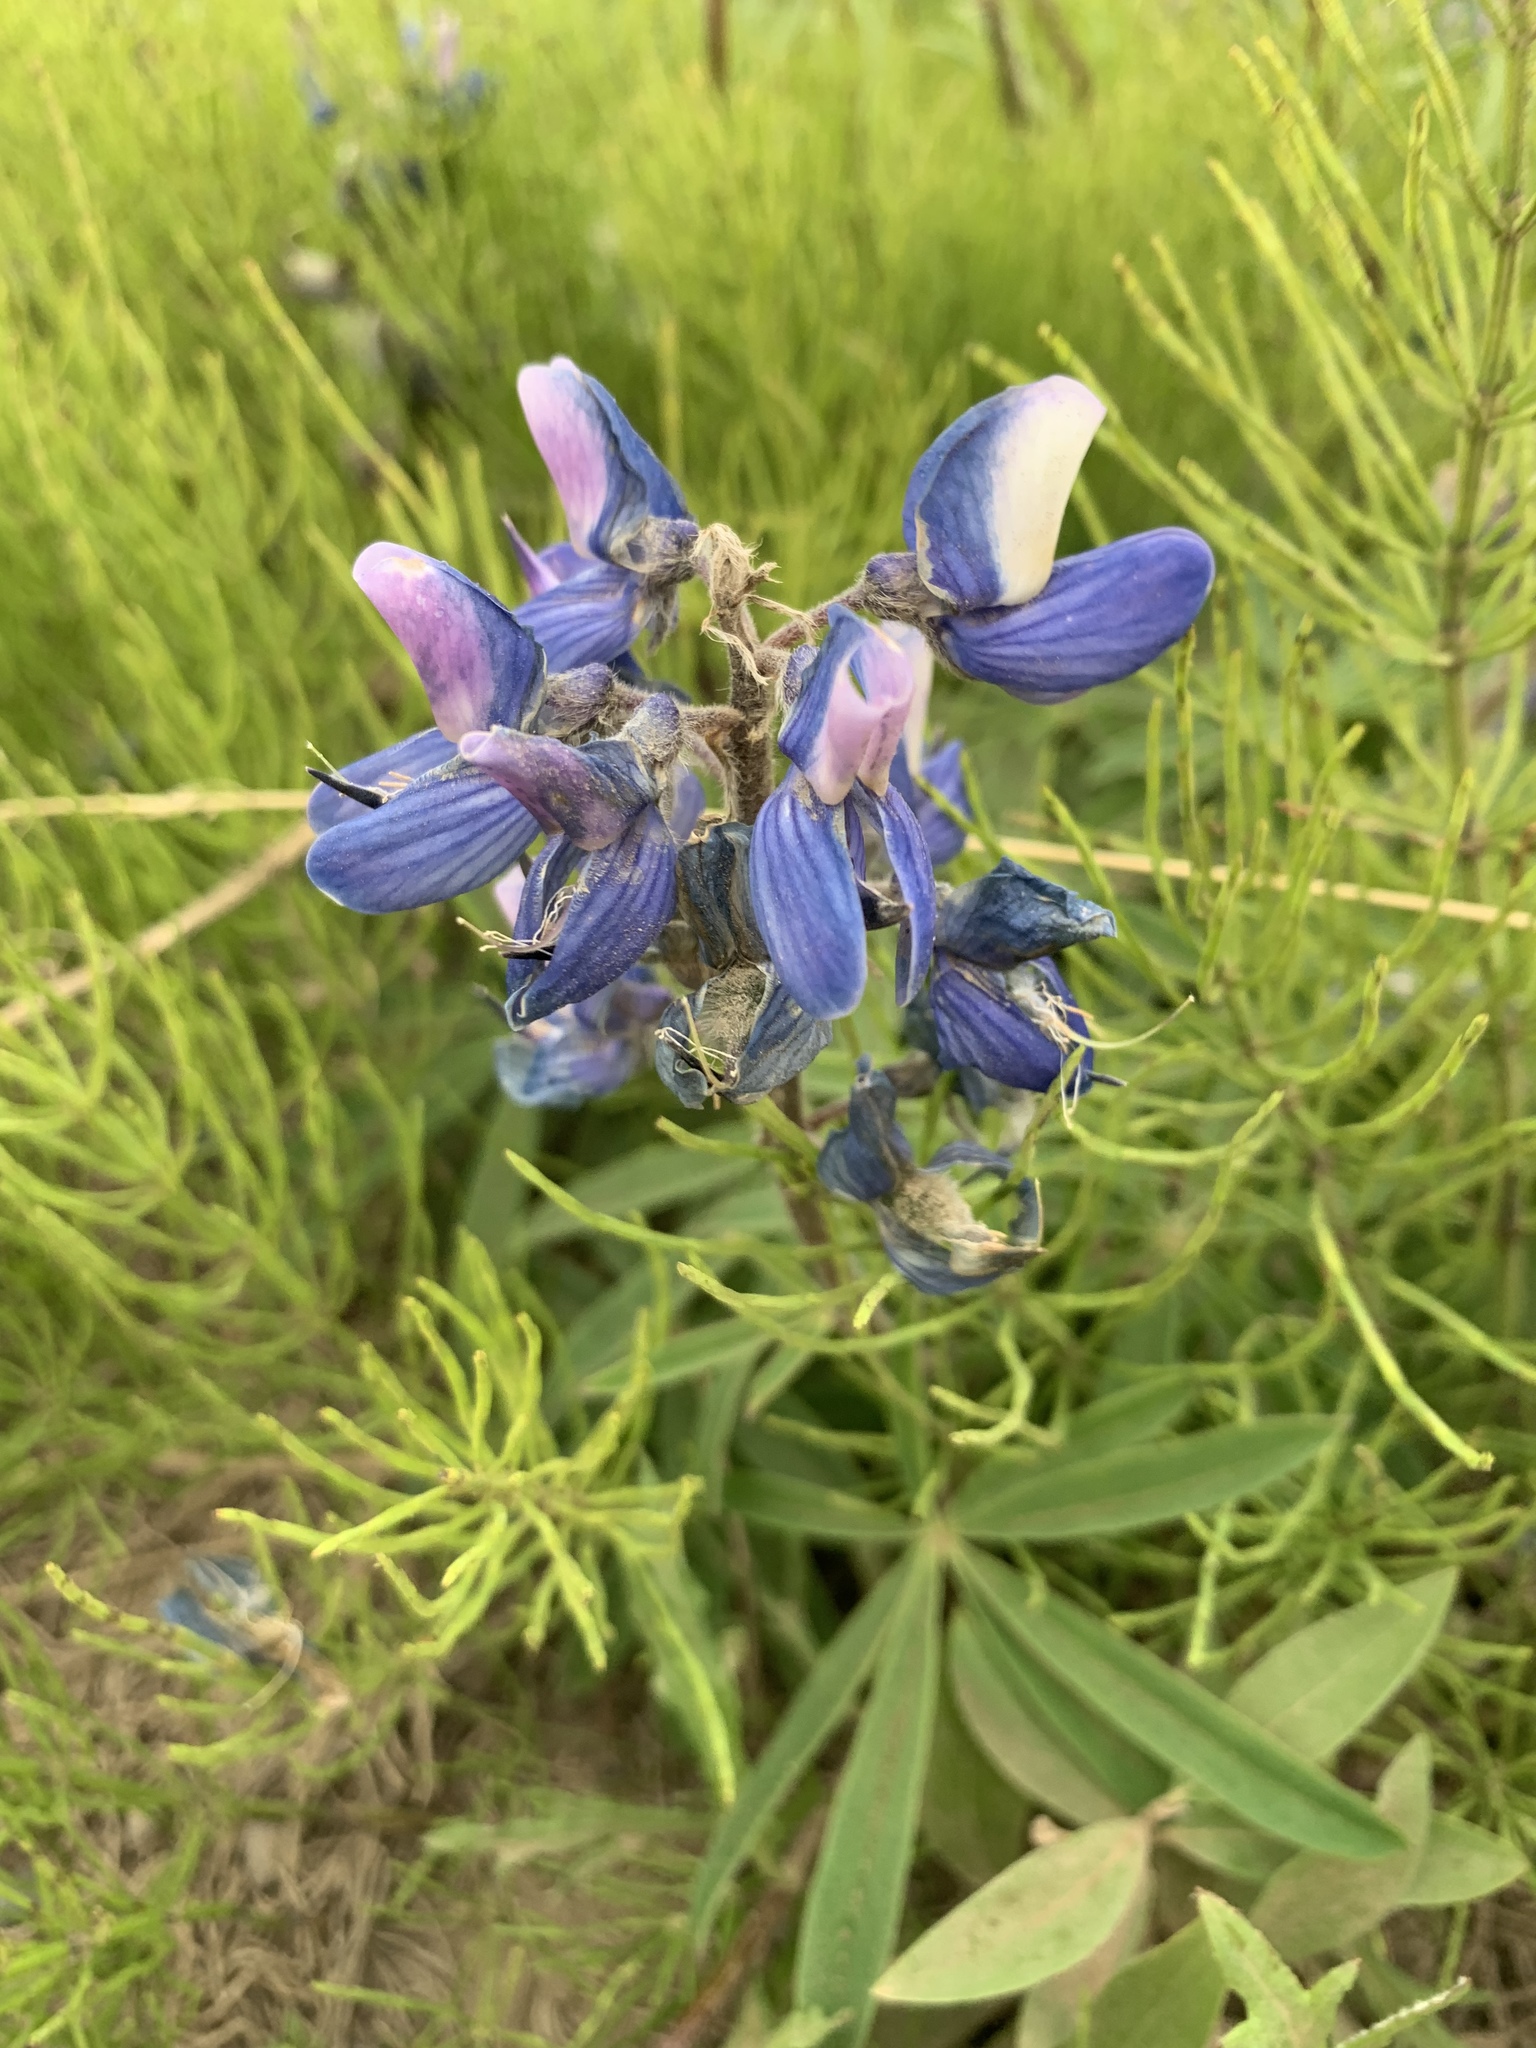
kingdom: Plantae
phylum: Tracheophyta
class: Magnoliopsida
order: Fabales
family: Fabaceae
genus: Lupinus
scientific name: Lupinus arcticus
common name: Arctic lupine
